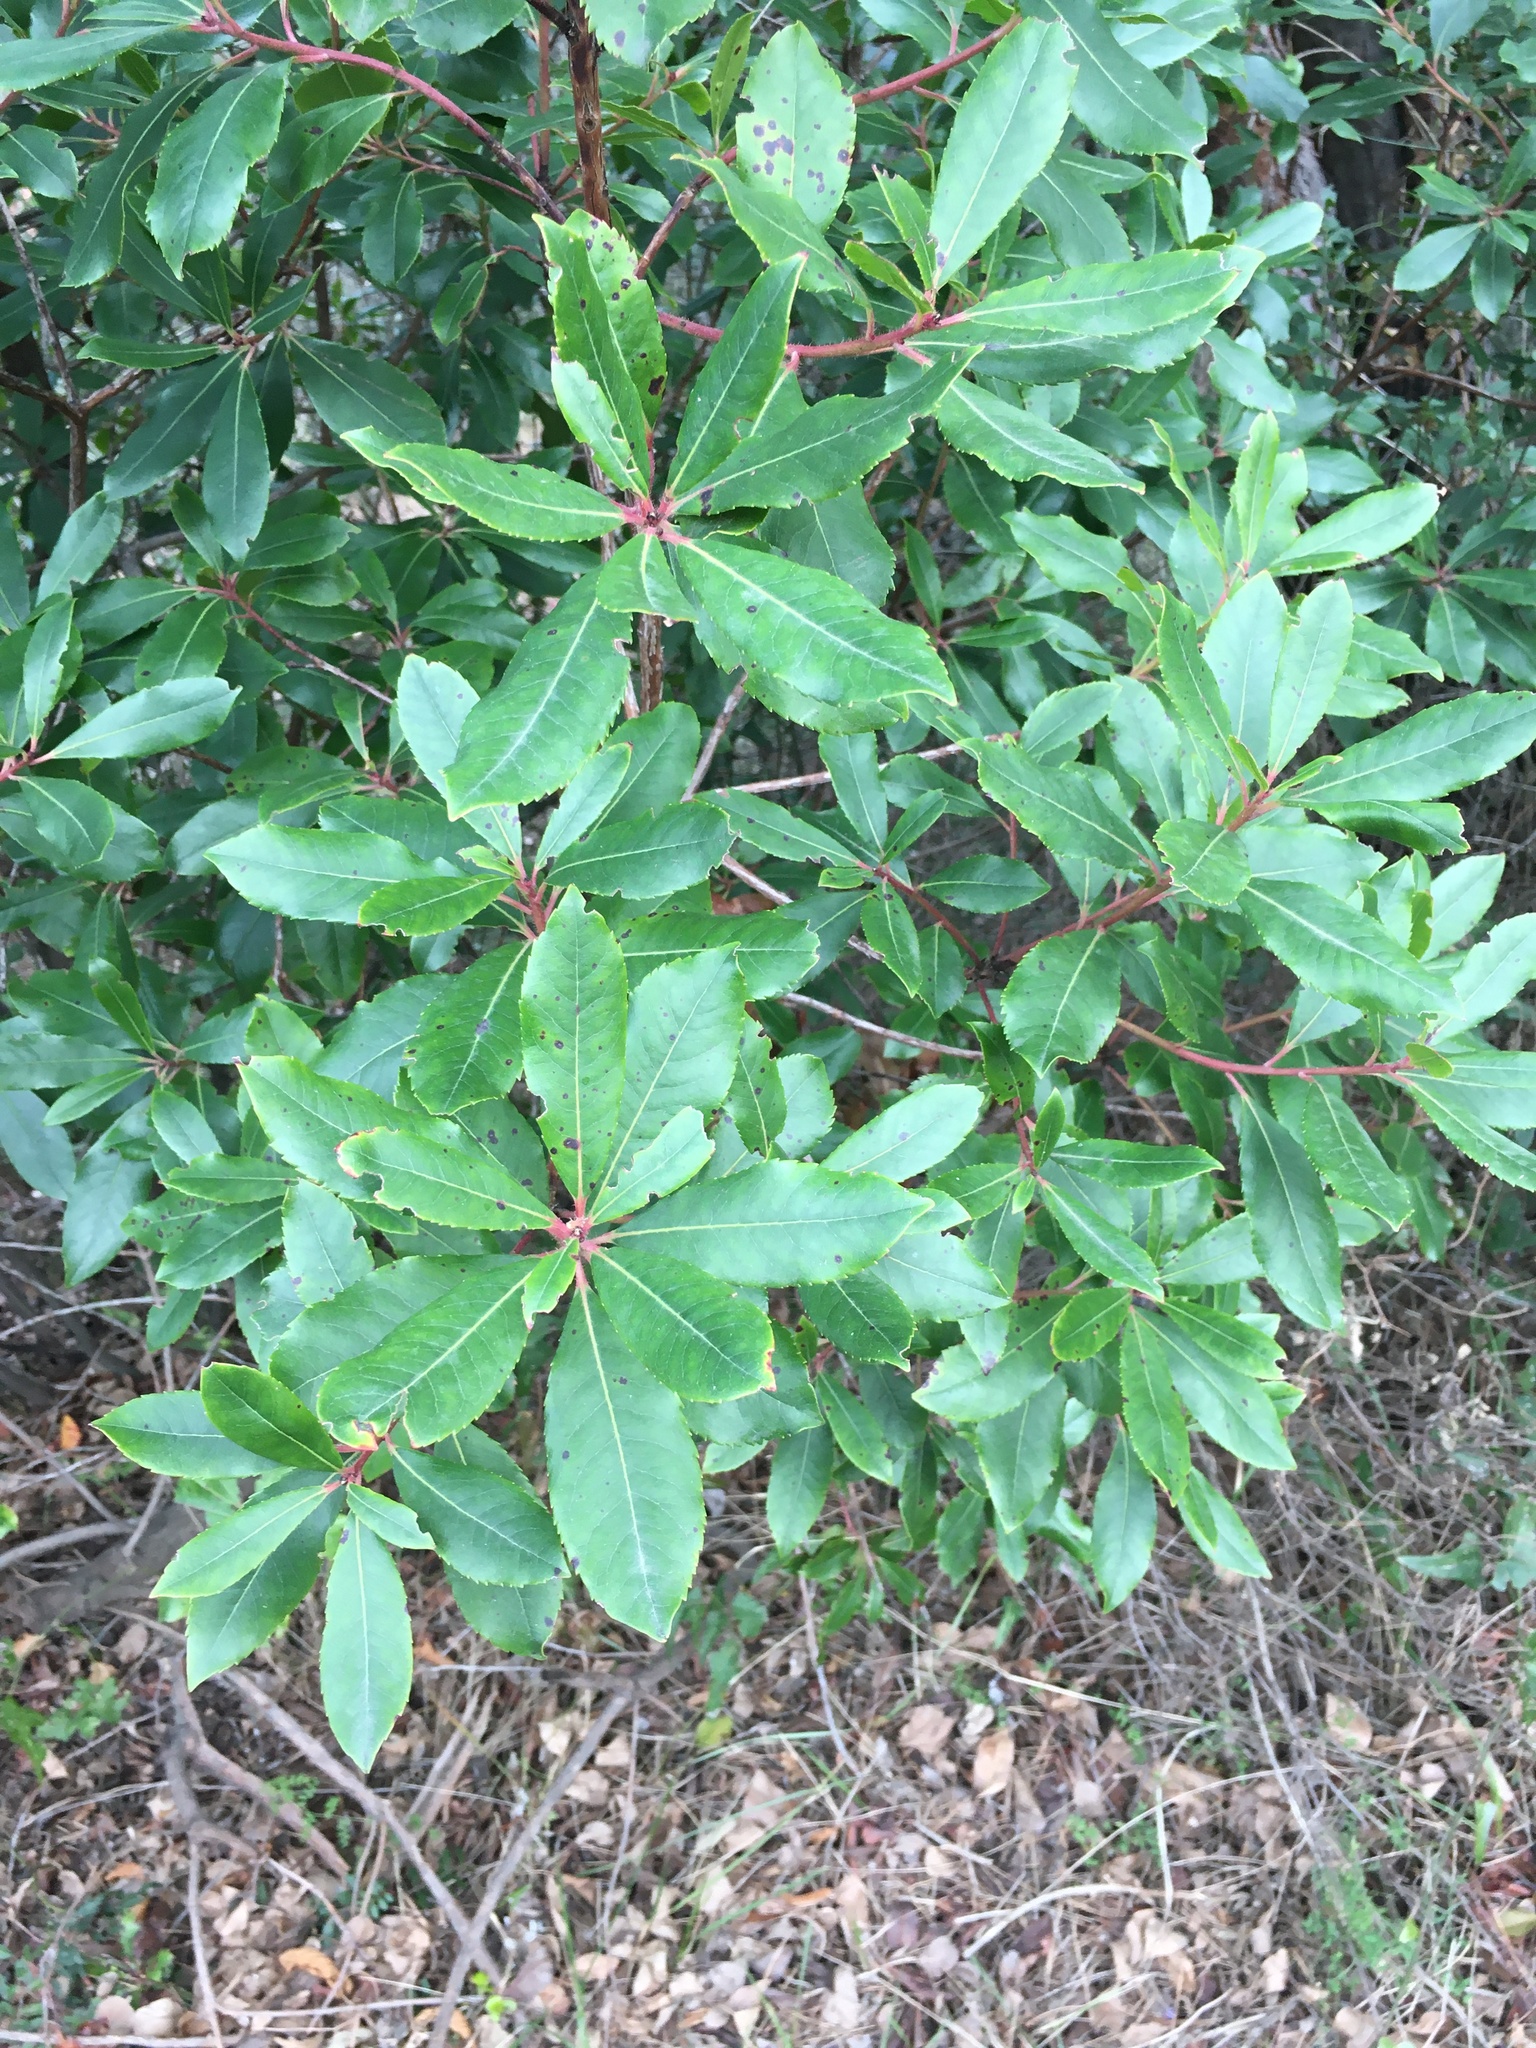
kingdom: Plantae
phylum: Tracheophyta
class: Magnoliopsida
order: Ericales
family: Ericaceae
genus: Arbutus
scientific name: Arbutus unedo
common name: Strawberry-tree
